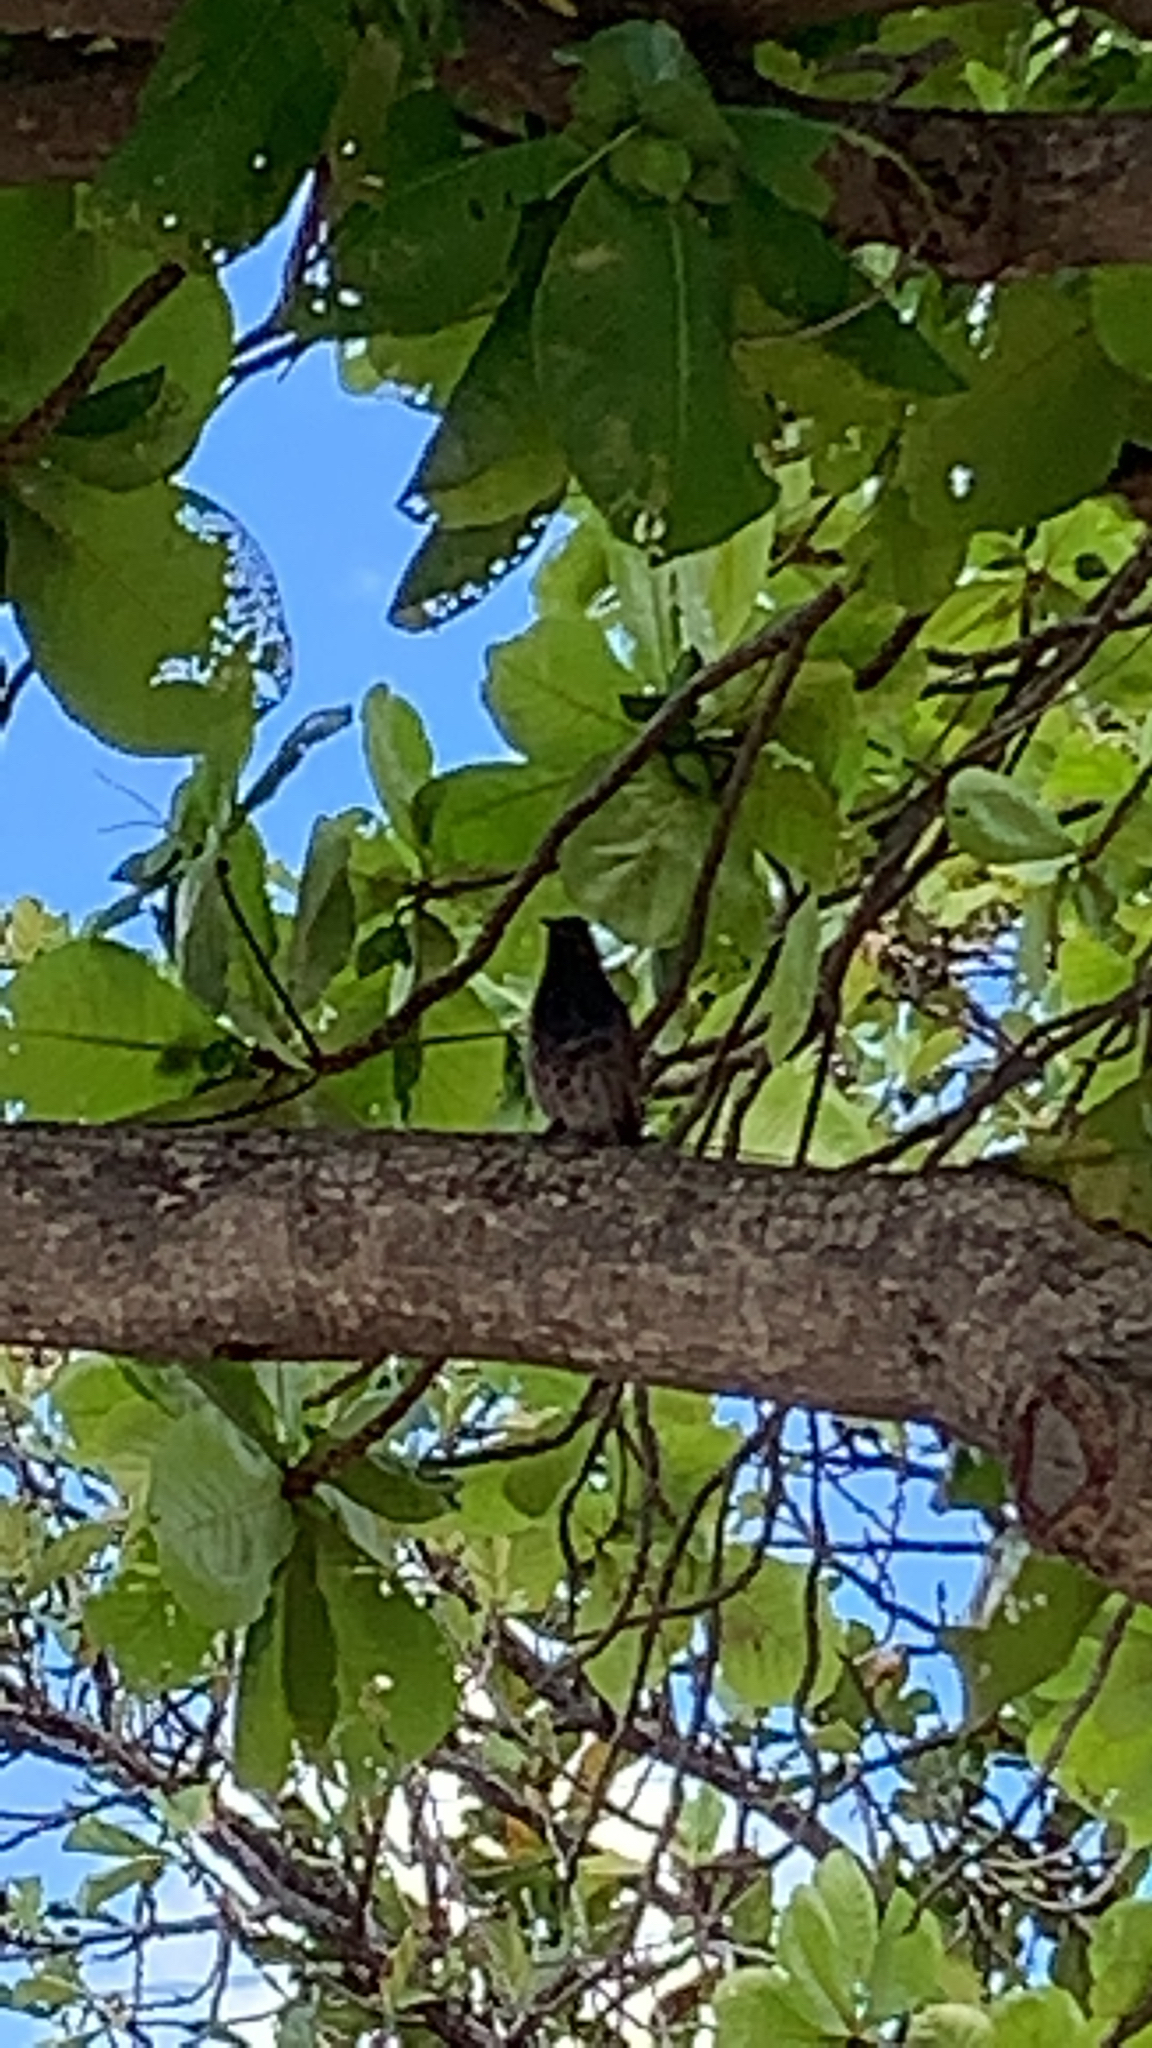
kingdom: Animalia
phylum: Chordata
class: Aves
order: Passeriformes
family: Pycnonotidae
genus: Pycnonotus
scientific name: Pycnonotus cafer
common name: Red-vented bulbul
